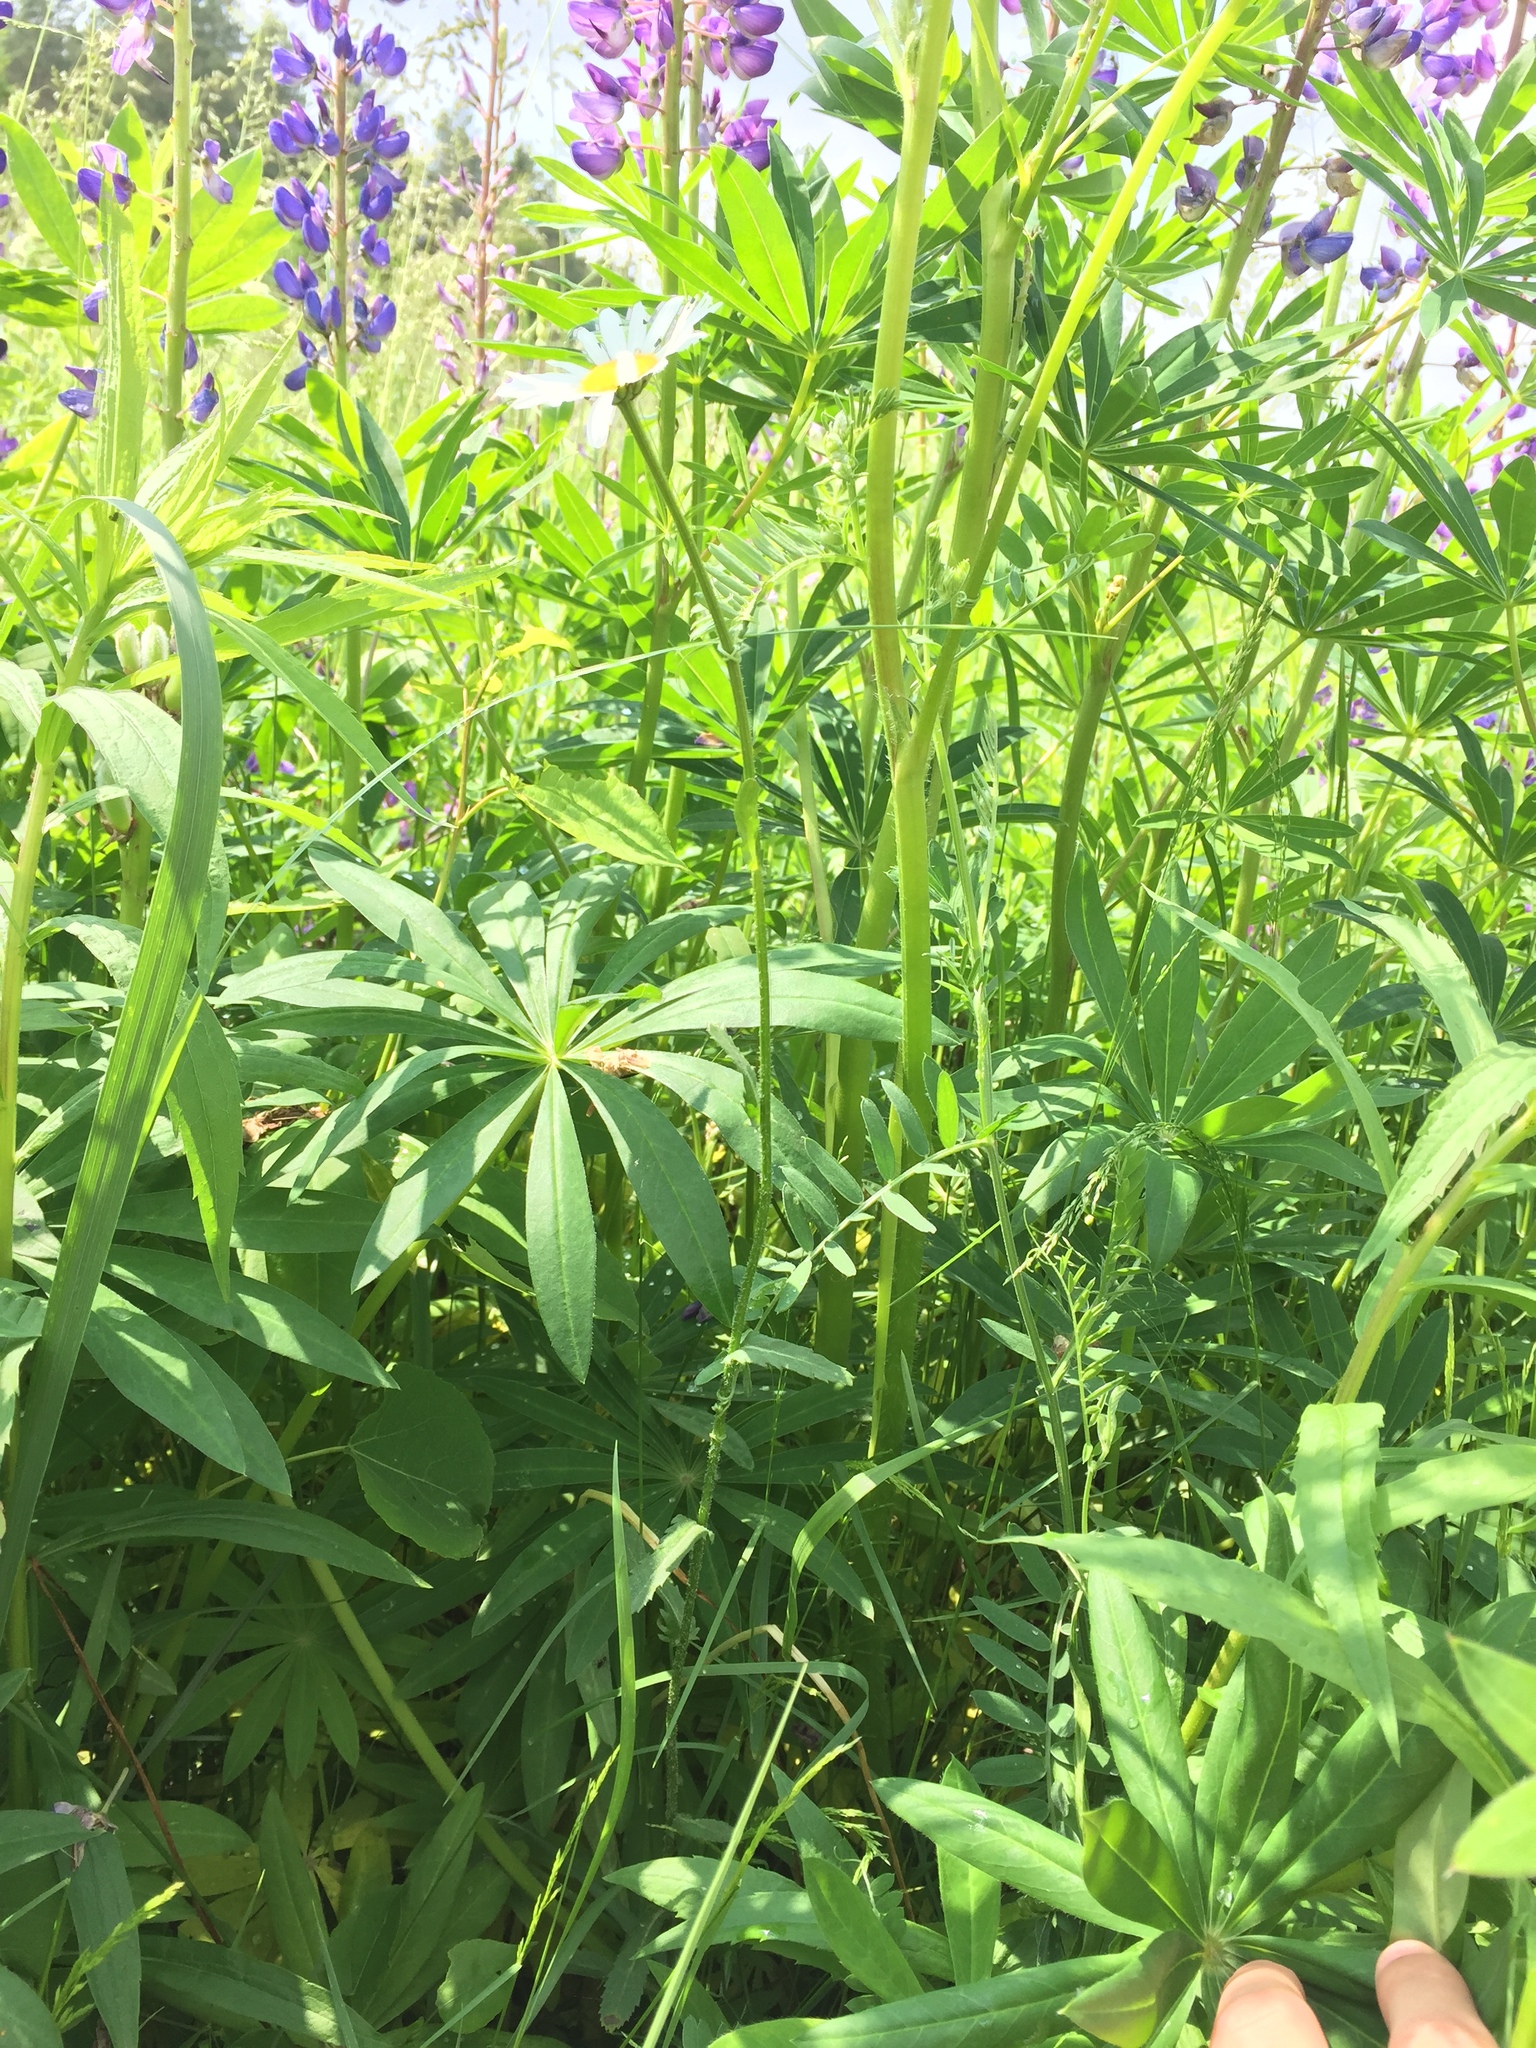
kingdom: Plantae
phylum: Tracheophyta
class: Magnoliopsida
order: Asterales
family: Asteraceae
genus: Leucanthemum
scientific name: Leucanthemum vulgare
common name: Oxeye daisy
